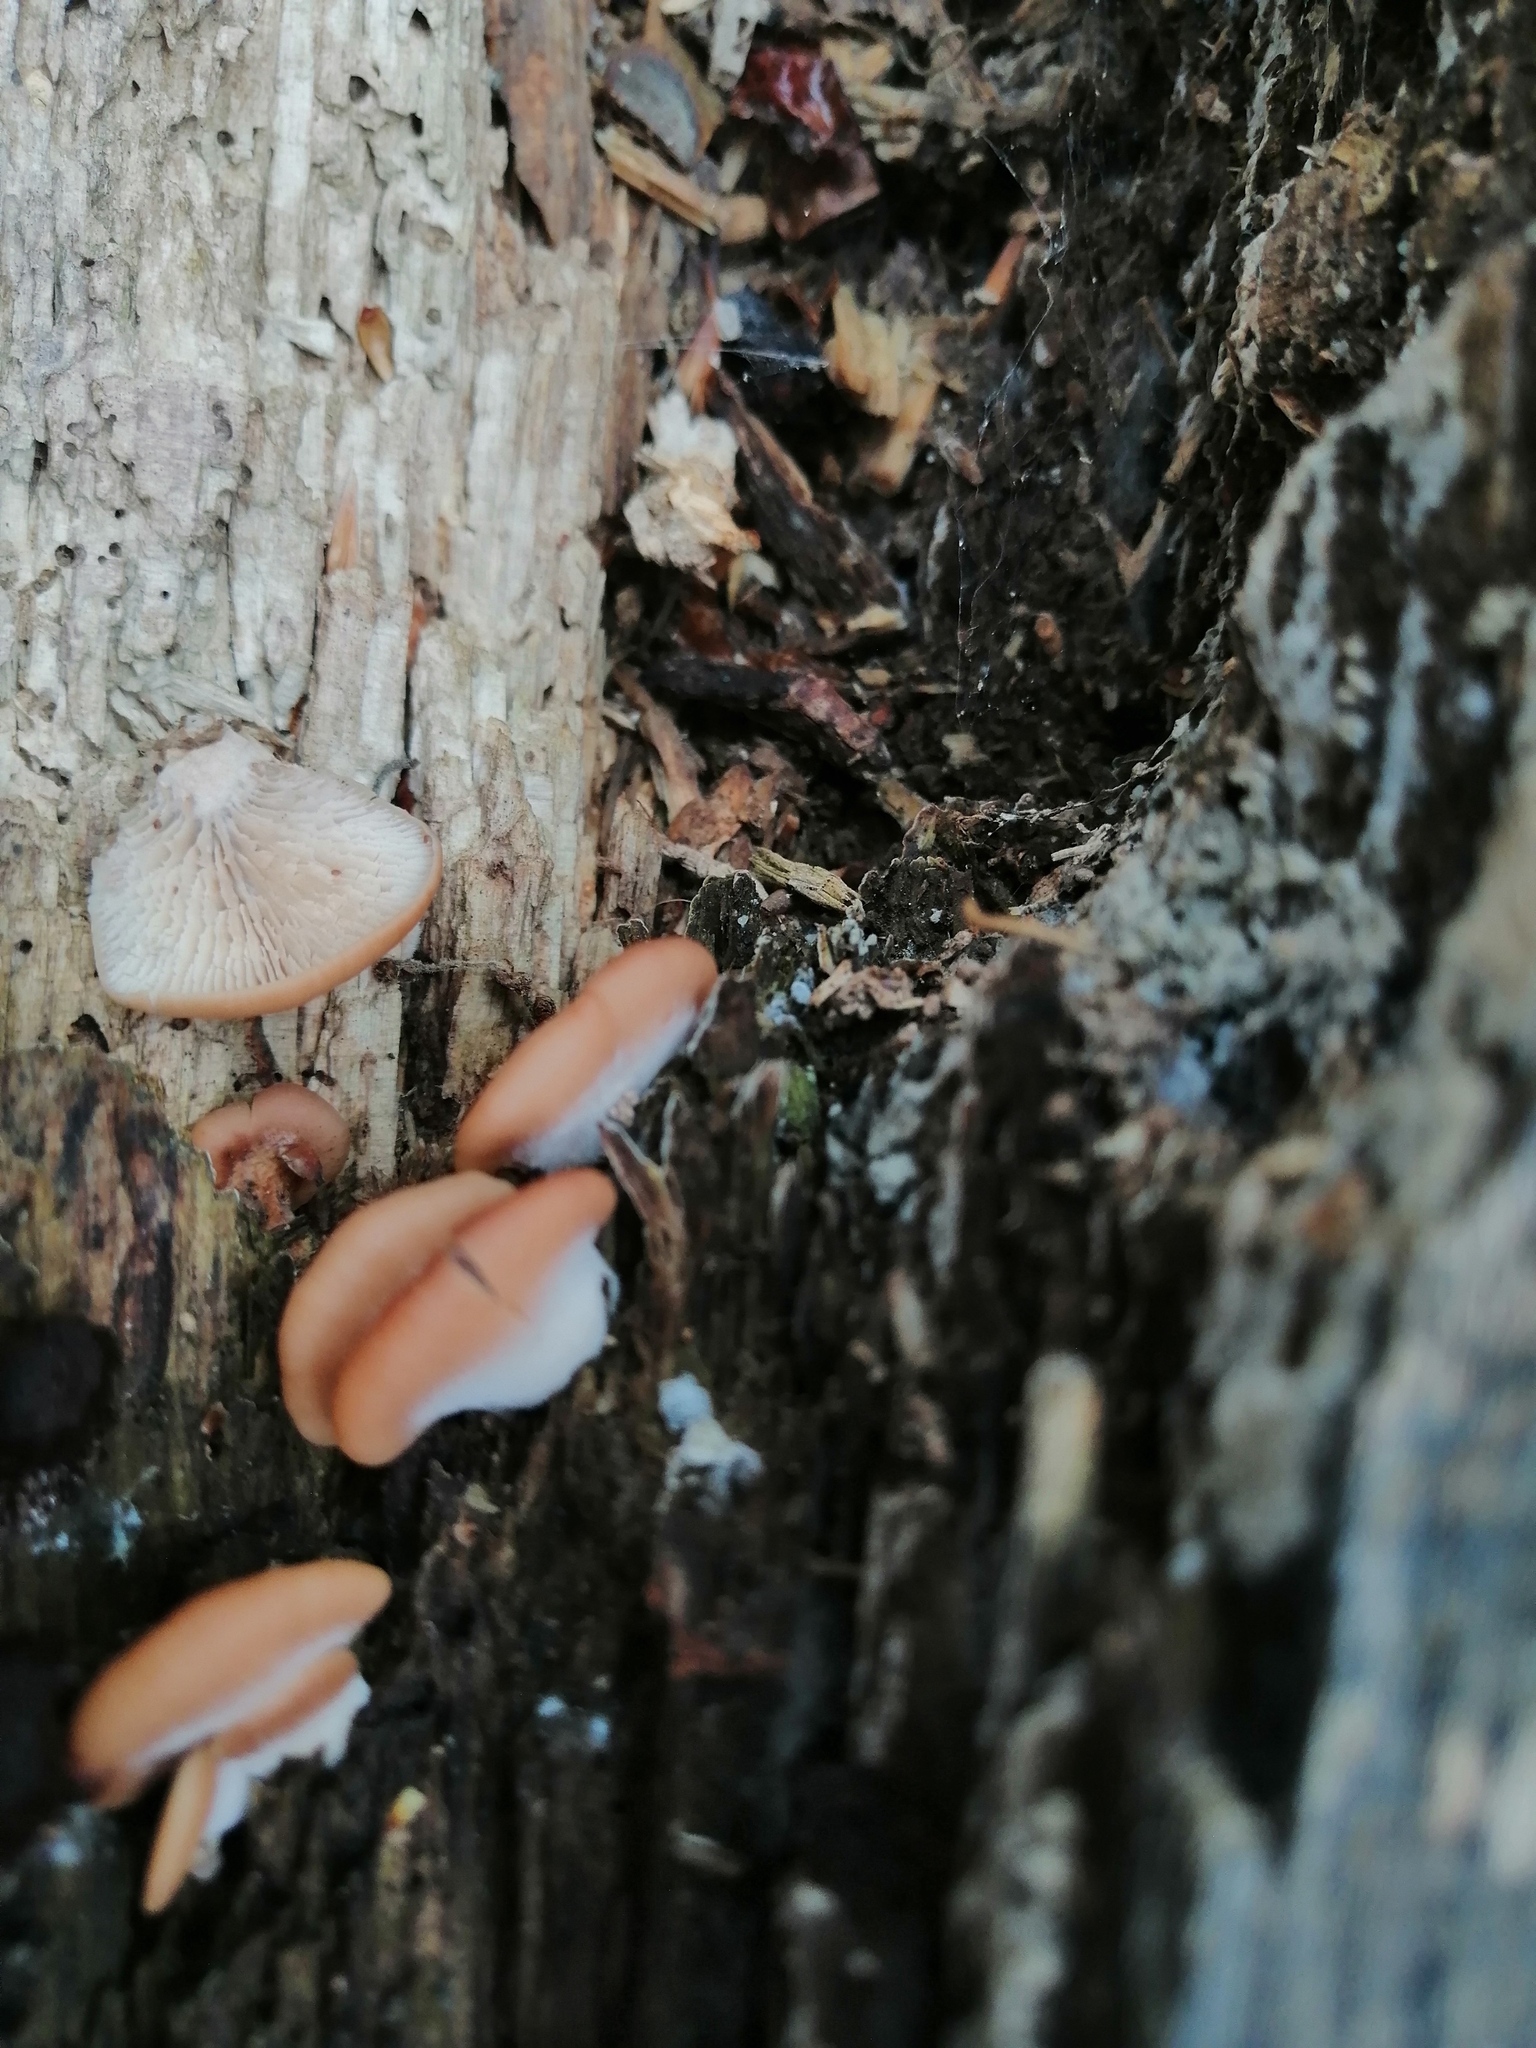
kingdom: Fungi
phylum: Basidiomycota
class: Agaricomycetes
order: Russulales
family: Auriscalpiaceae
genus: Lentinellus
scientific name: Lentinellus ursinus
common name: Bear lentinus
